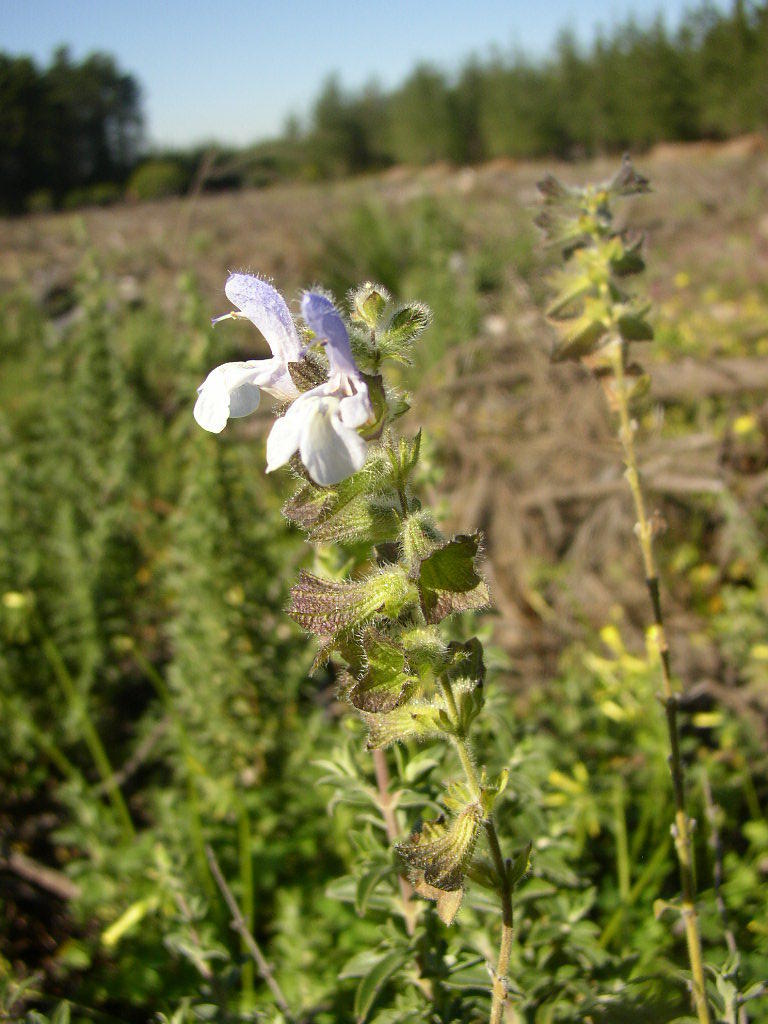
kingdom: Plantae
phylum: Tracheophyta
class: Magnoliopsida
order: Lamiales
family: Lamiaceae
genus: Salvia
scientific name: Salvia africana
